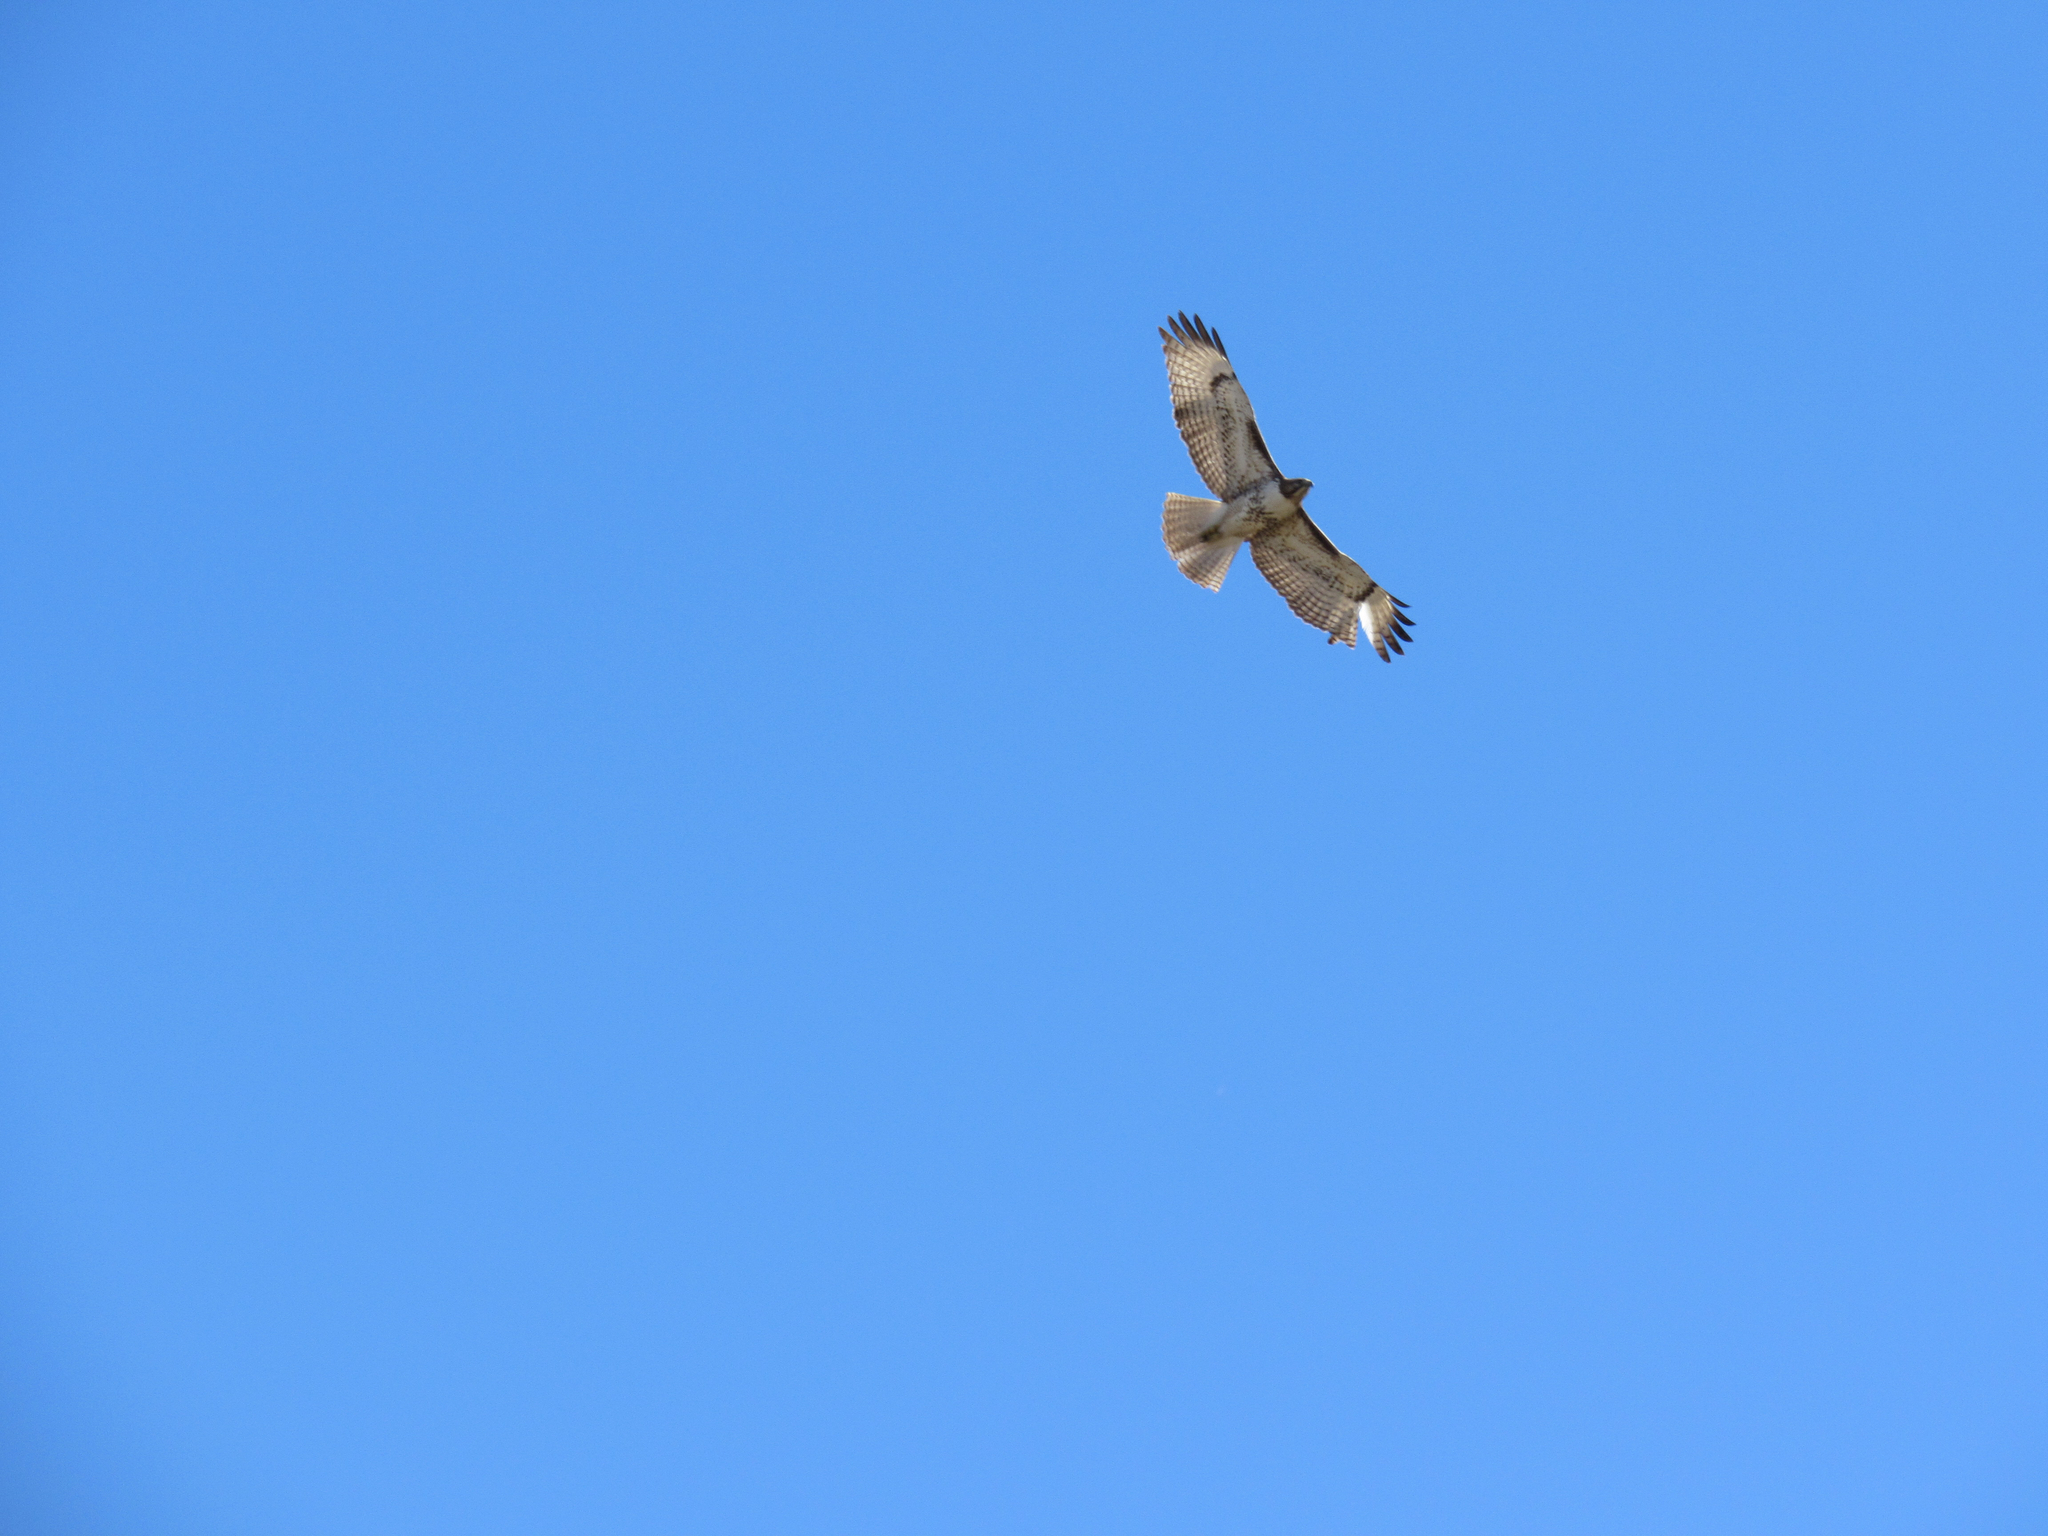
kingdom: Animalia
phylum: Chordata
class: Aves
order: Accipitriformes
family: Accipitridae
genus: Buteo
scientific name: Buteo jamaicensis
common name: Red-tailed hawk
